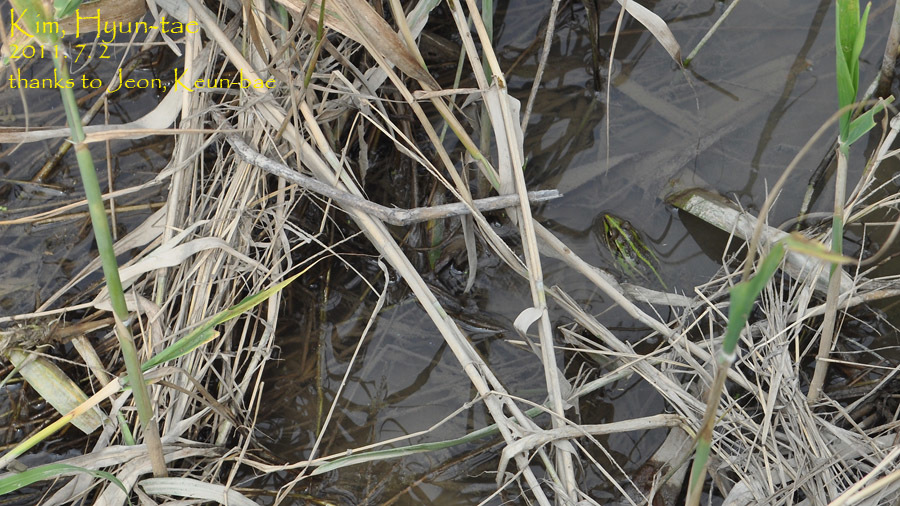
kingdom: Animalia
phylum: Chordata
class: Amphibia
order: Anura
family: Ranidae
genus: Pelophylax
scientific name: Pelophylax nigromaculatus
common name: Black-spotted pond frog
